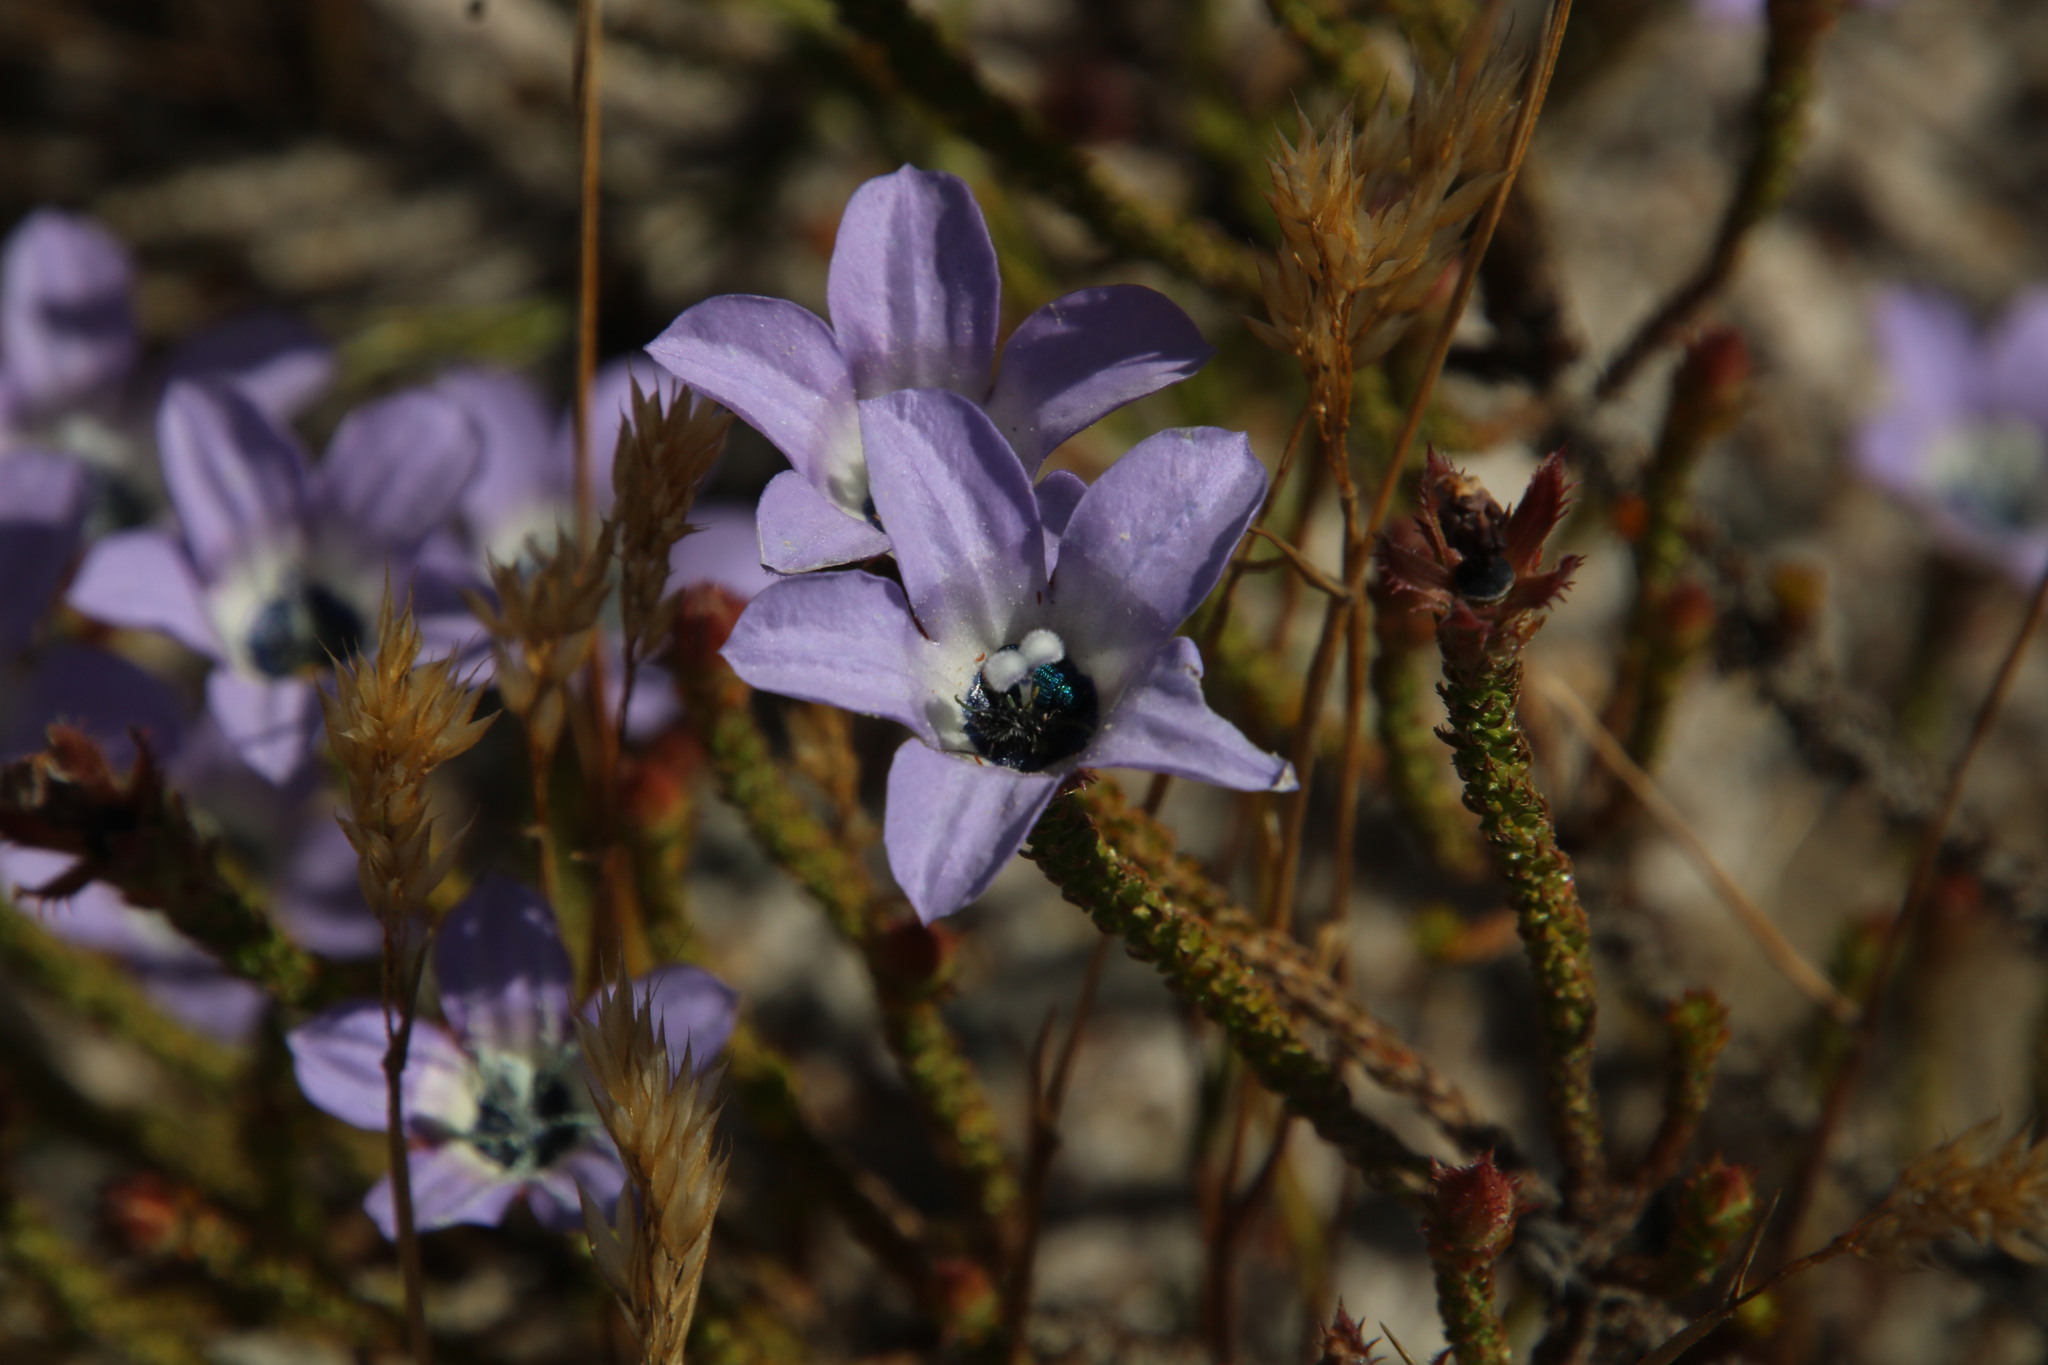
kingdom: Plantae
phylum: Tracheophyta
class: Magnoliopsida
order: Asterales
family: Campanulaceae
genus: Roella
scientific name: Roella triflora
